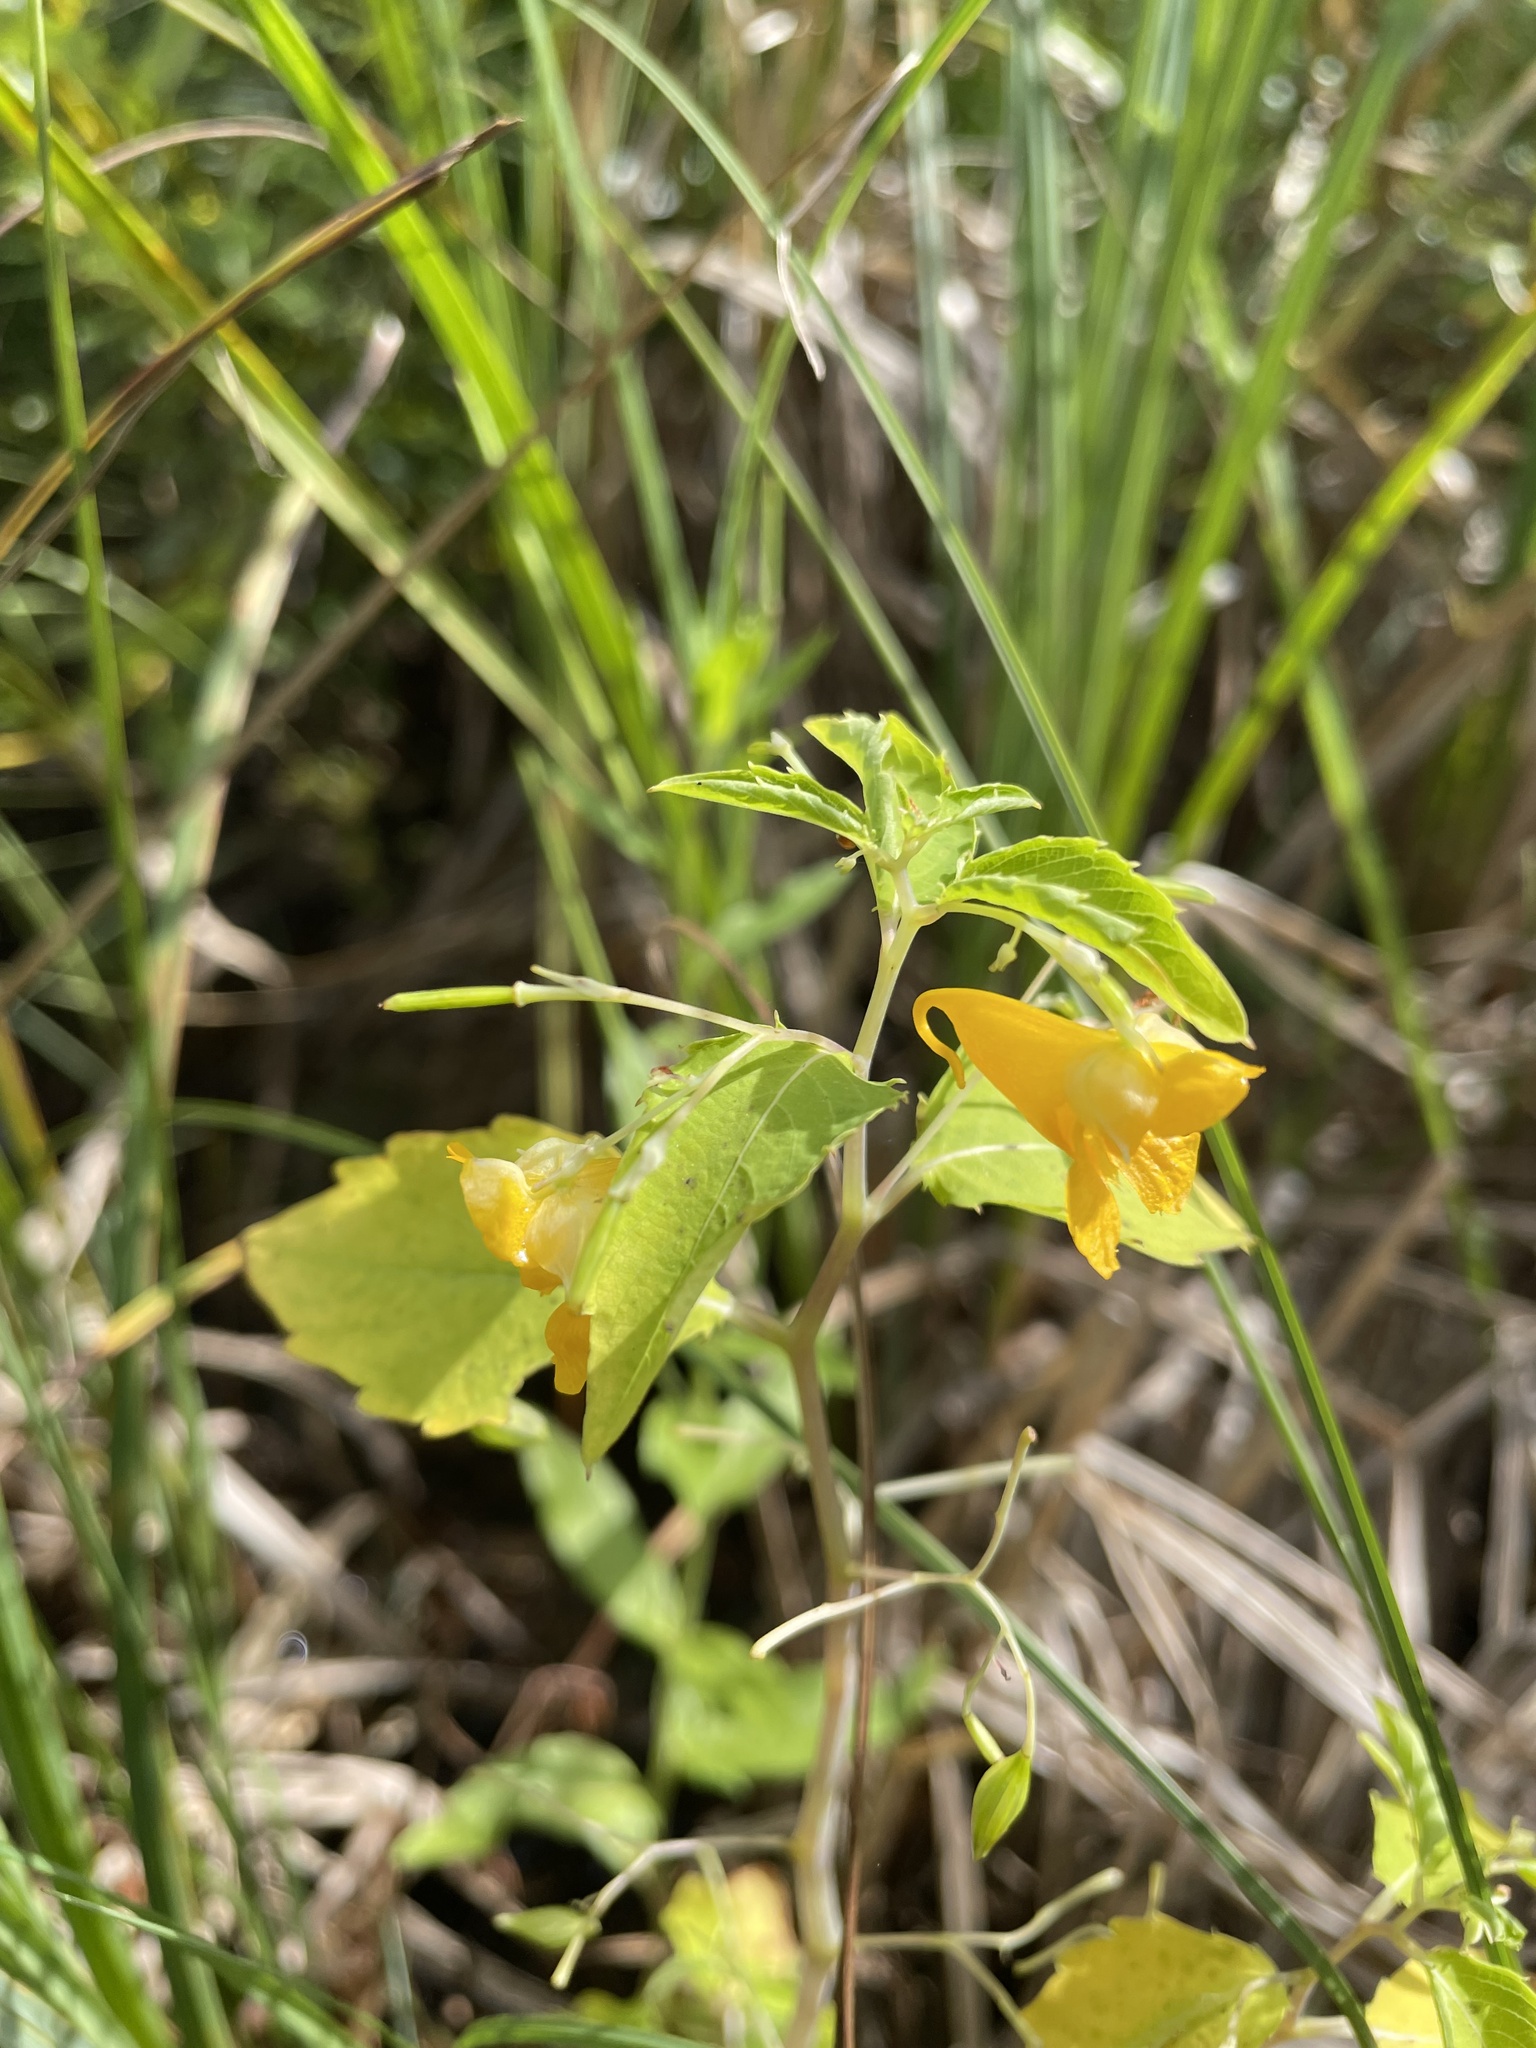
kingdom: Plantae
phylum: Tracheophyta
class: Magnoliopsida
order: Ericales
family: Balsaminaceae
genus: Impatiens
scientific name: Impatiens capensis
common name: Orange balsam
